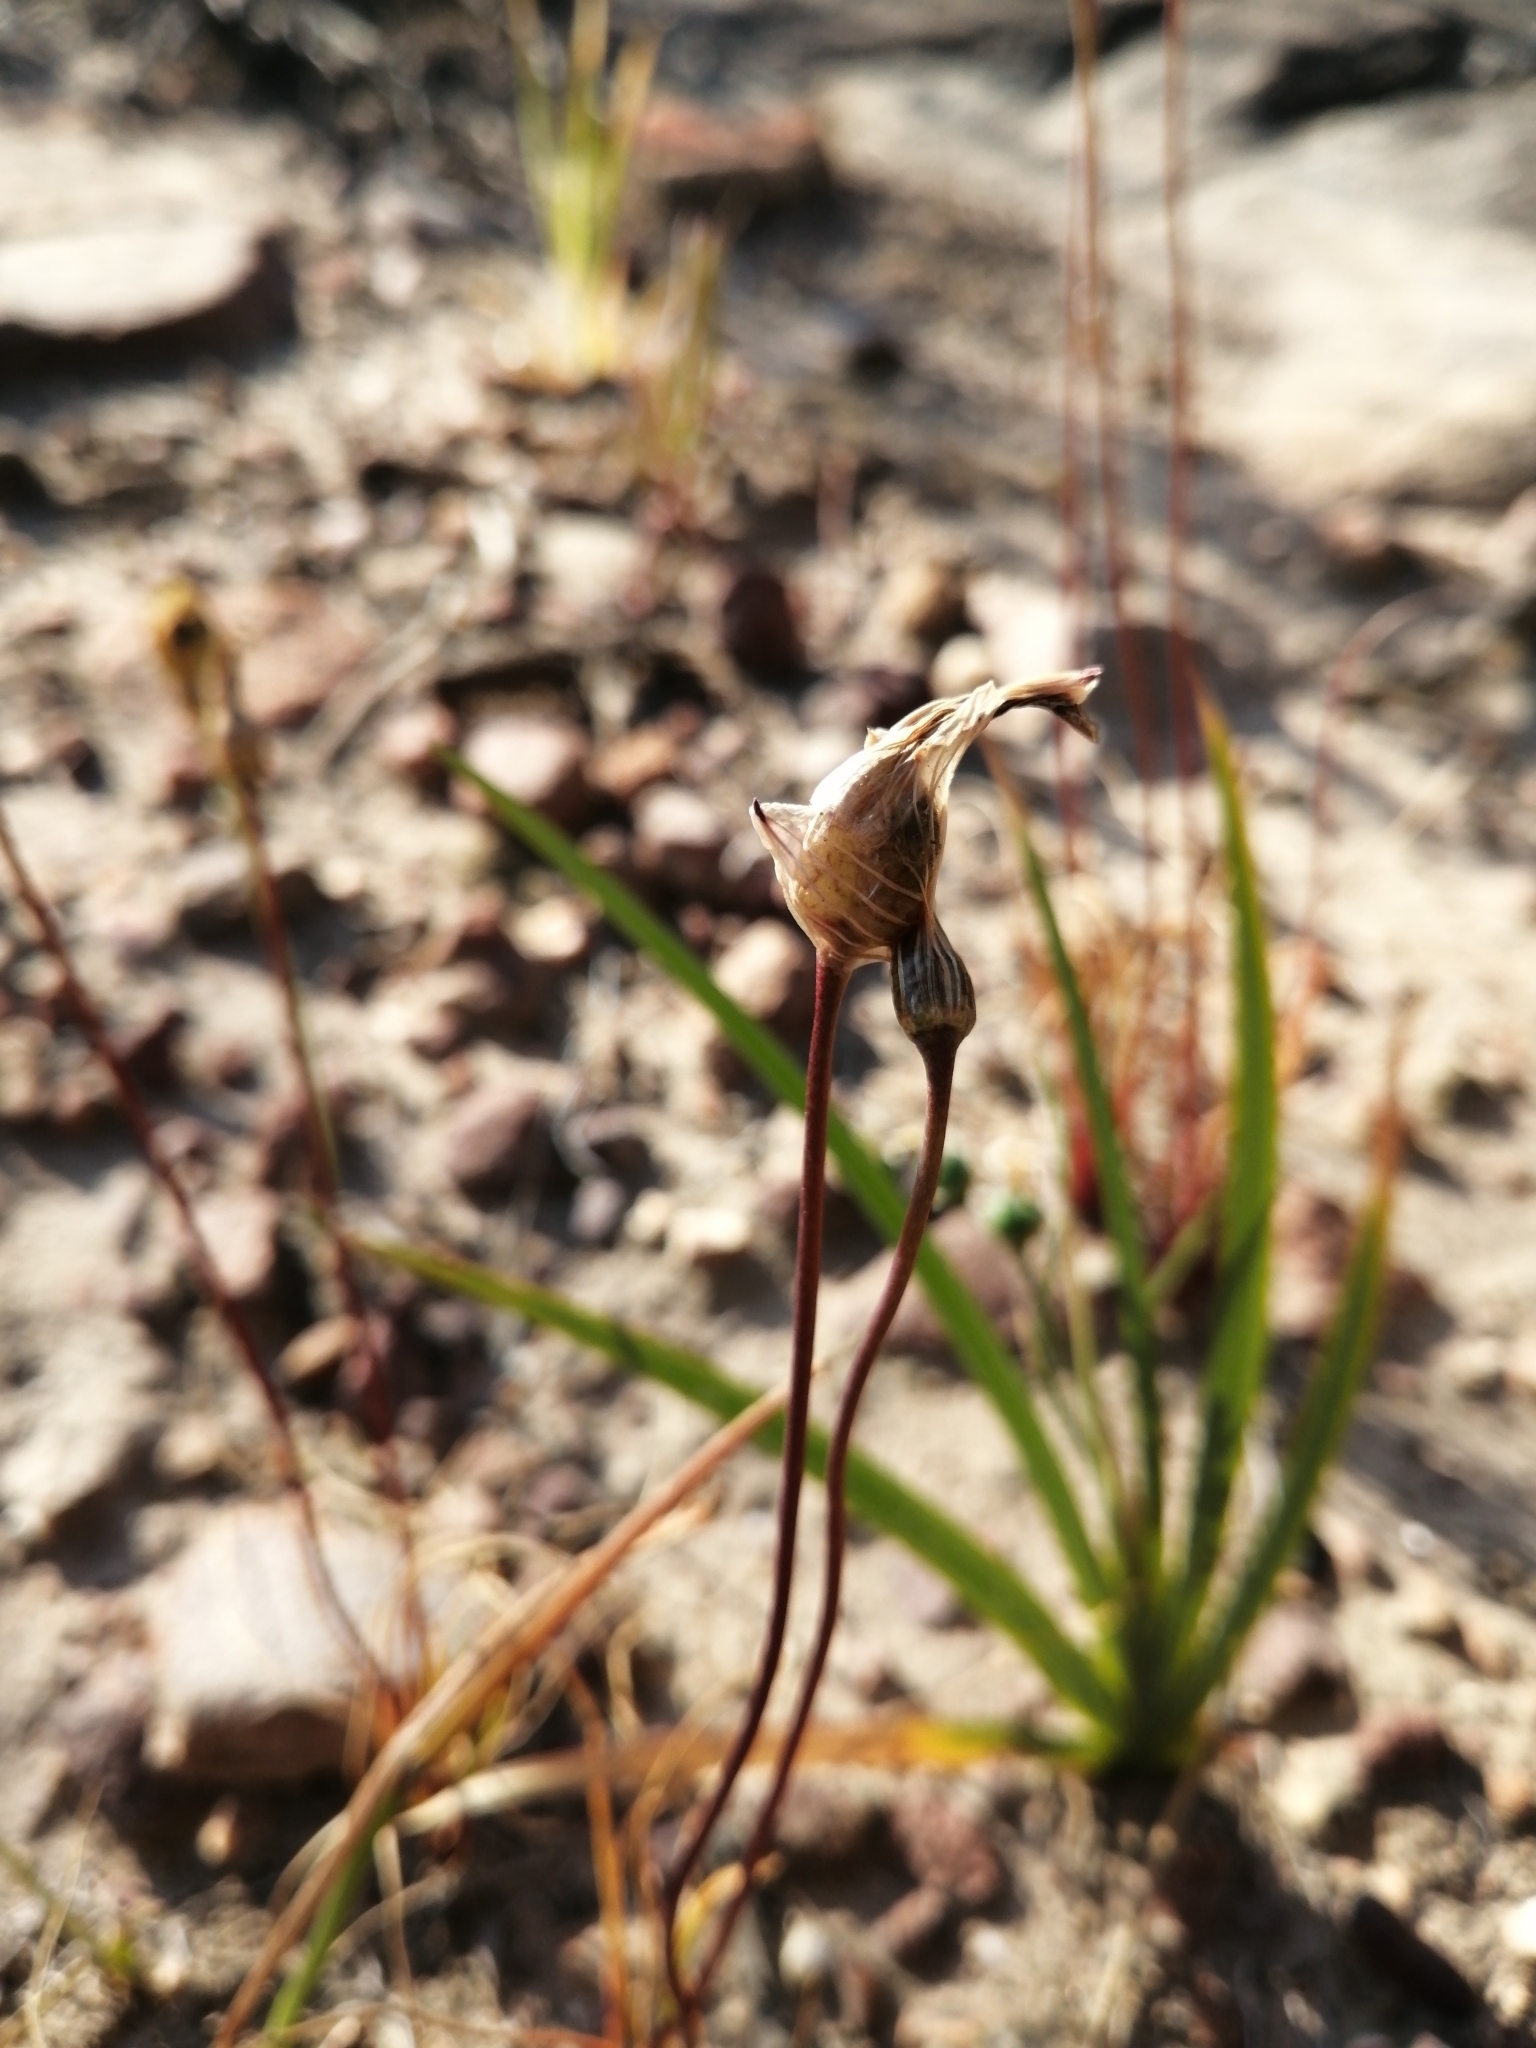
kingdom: Plantae
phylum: Tracheophyta
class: Liliopsida
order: Asparagales
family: Tecophilaeaceae
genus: Cyanella
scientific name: Cyanella alba
